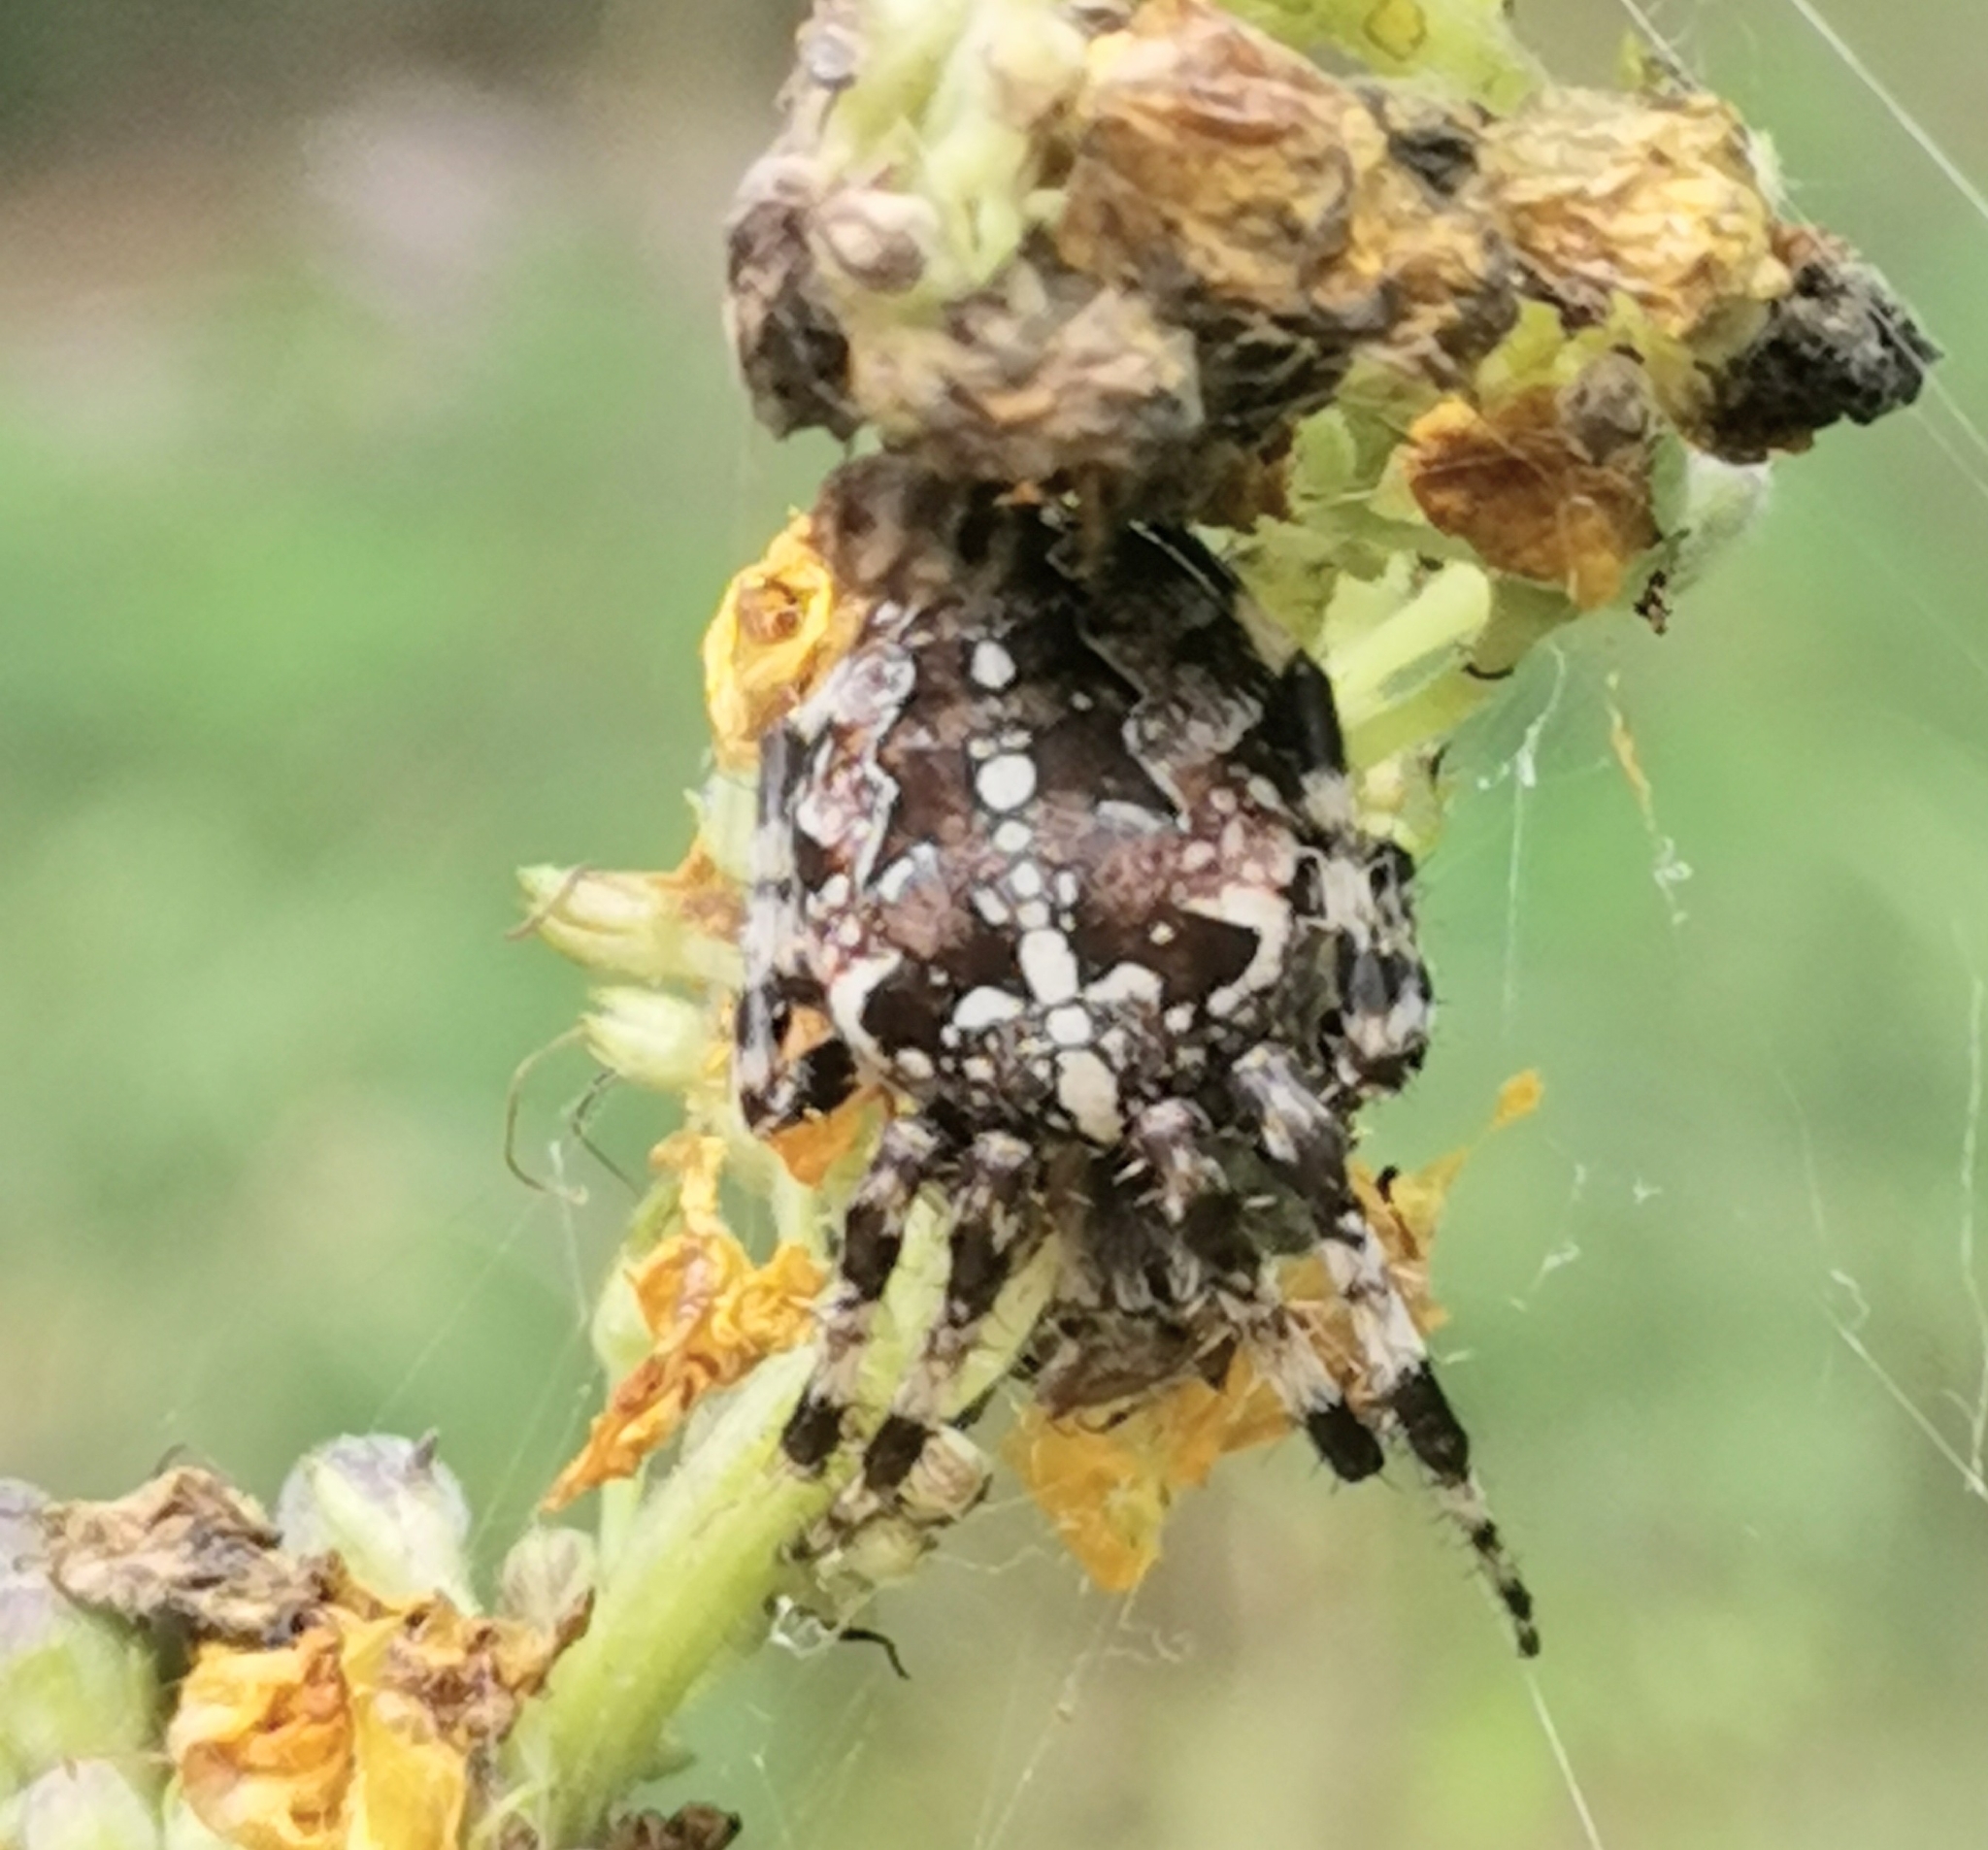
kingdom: Animalia
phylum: Arthropoda
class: Arachnida
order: Araneae
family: Araneidae
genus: Araneus
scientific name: Araneus diadematus
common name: Cross orbweaver
